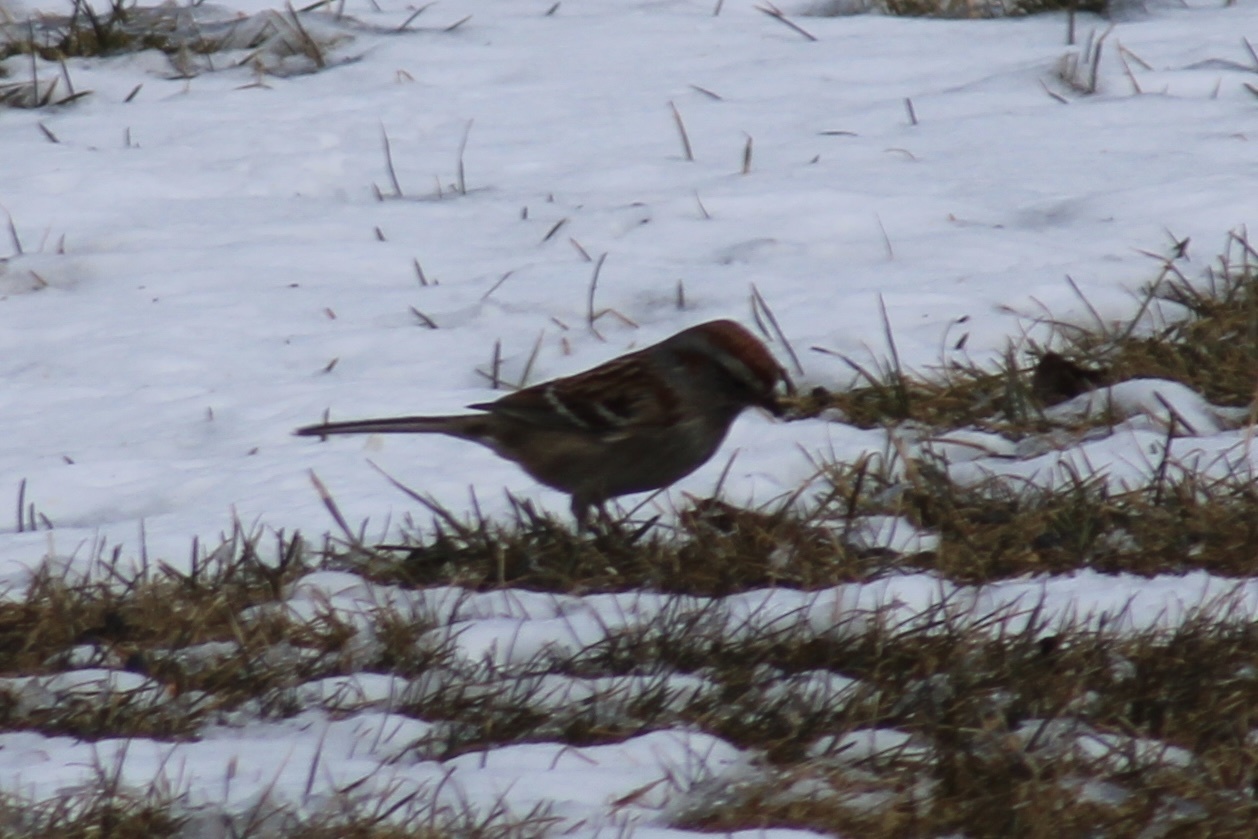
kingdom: Animalia
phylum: Chordata
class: Aves
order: Passeriformes
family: Passerellidae
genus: Spizelloides
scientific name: Spizelloides arborea
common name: American tree sparrow
